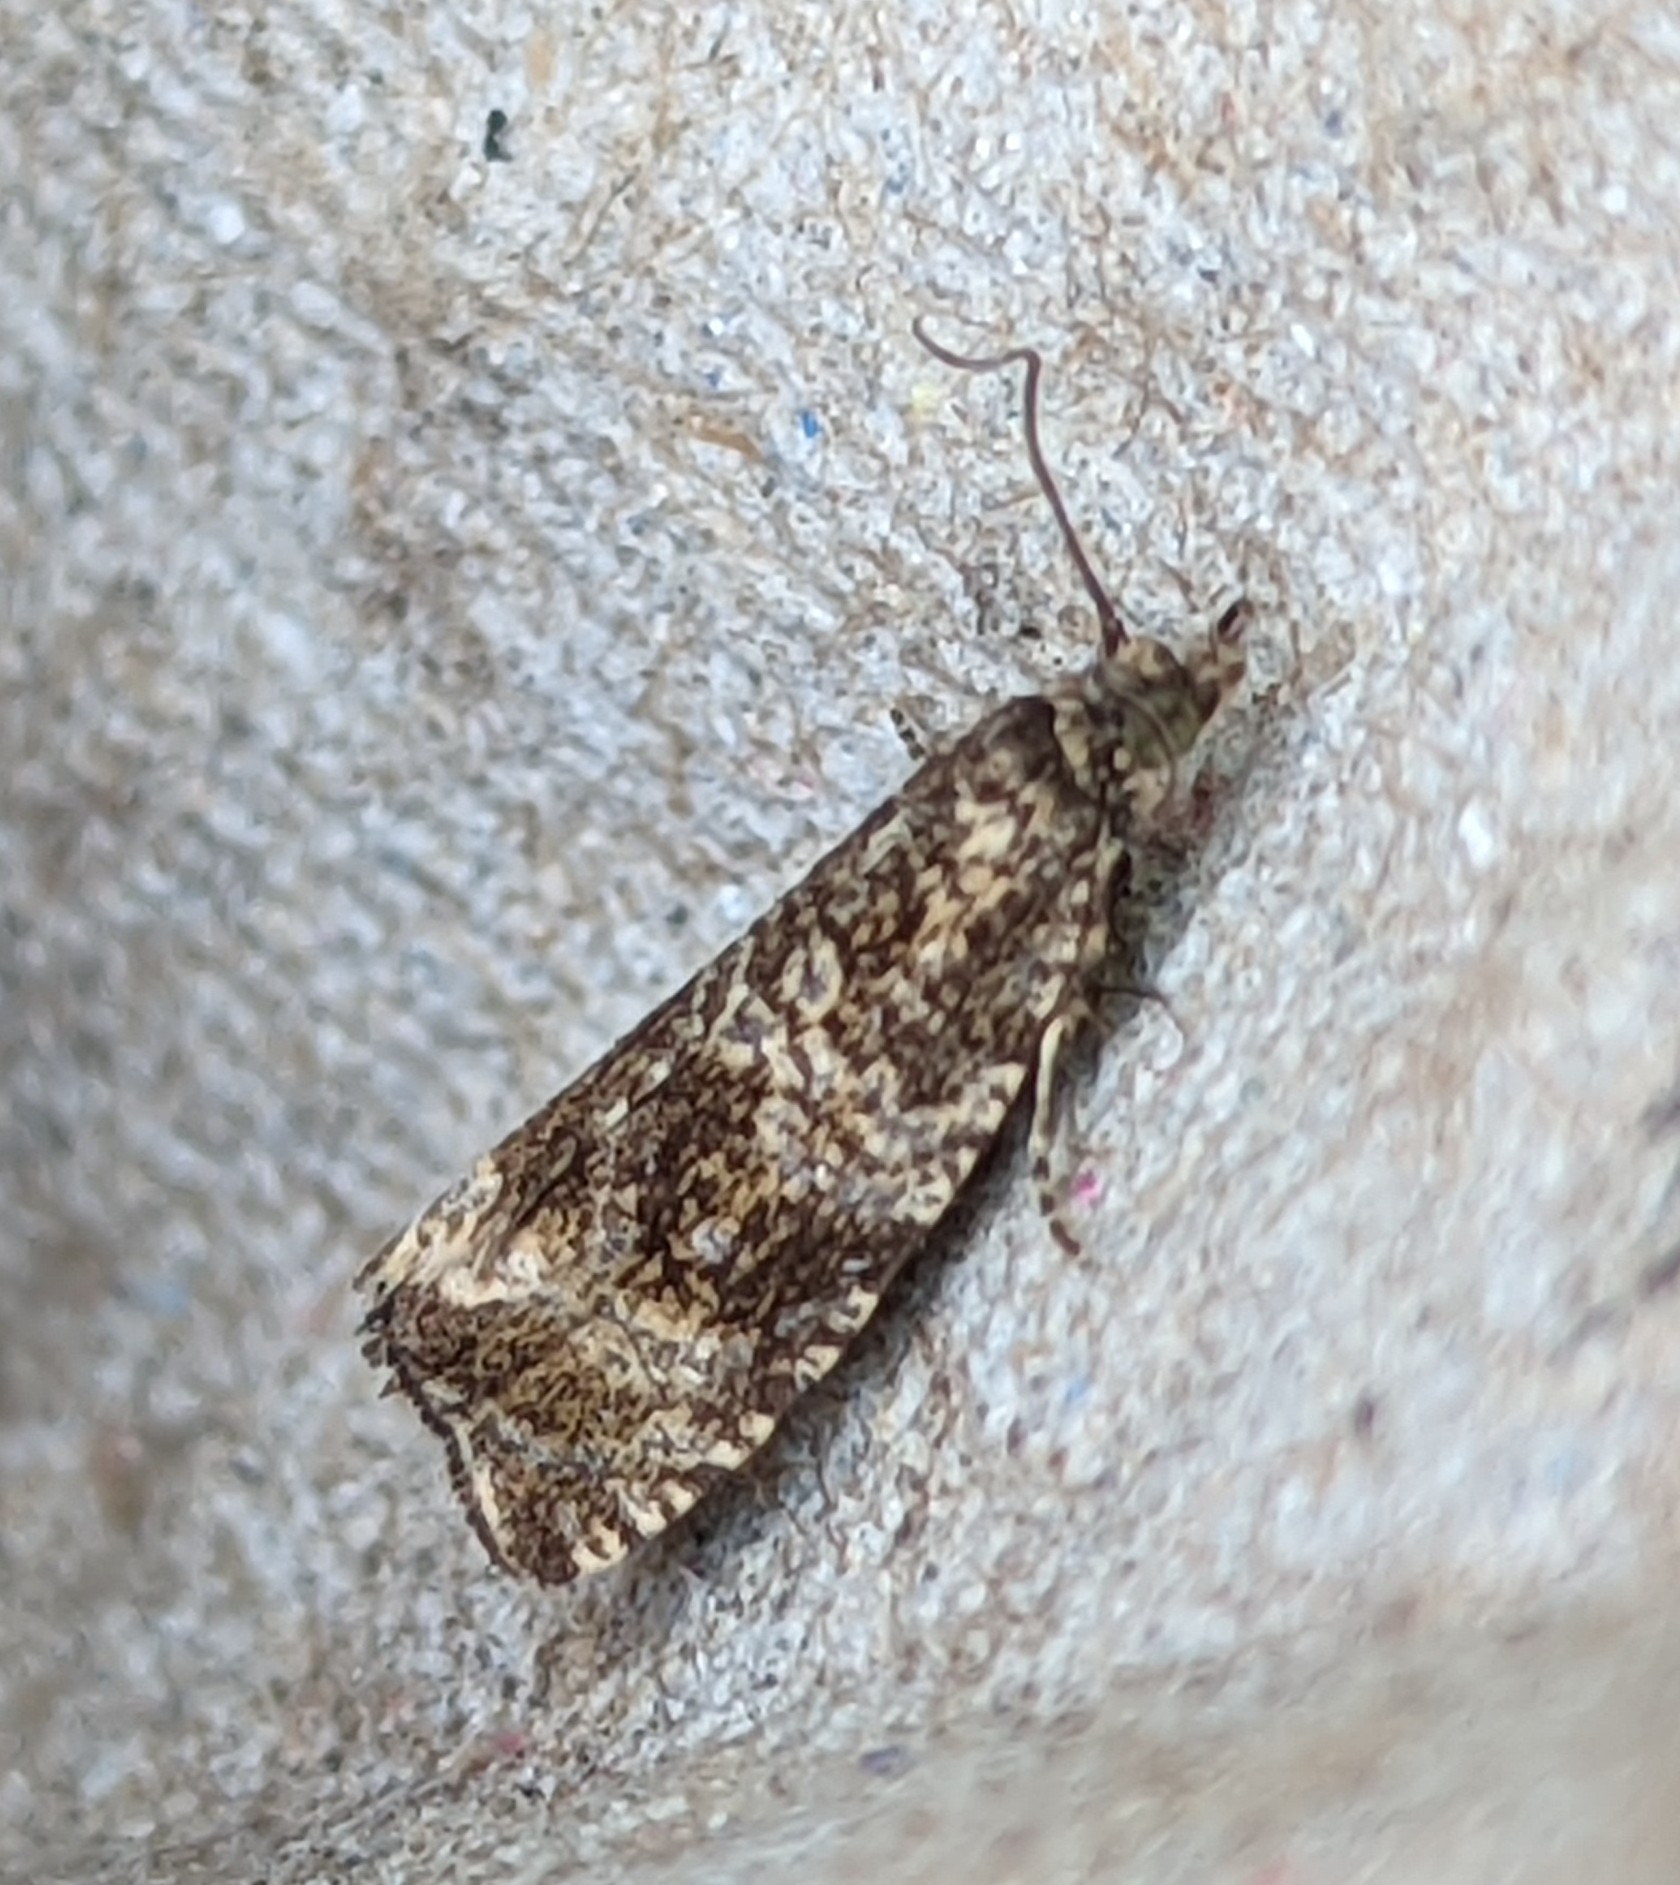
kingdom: Animalia
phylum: Arthropoda
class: Insecta
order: Lepidoptera
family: Tortricidae
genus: Syricoris
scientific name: Syricoris lacunana
